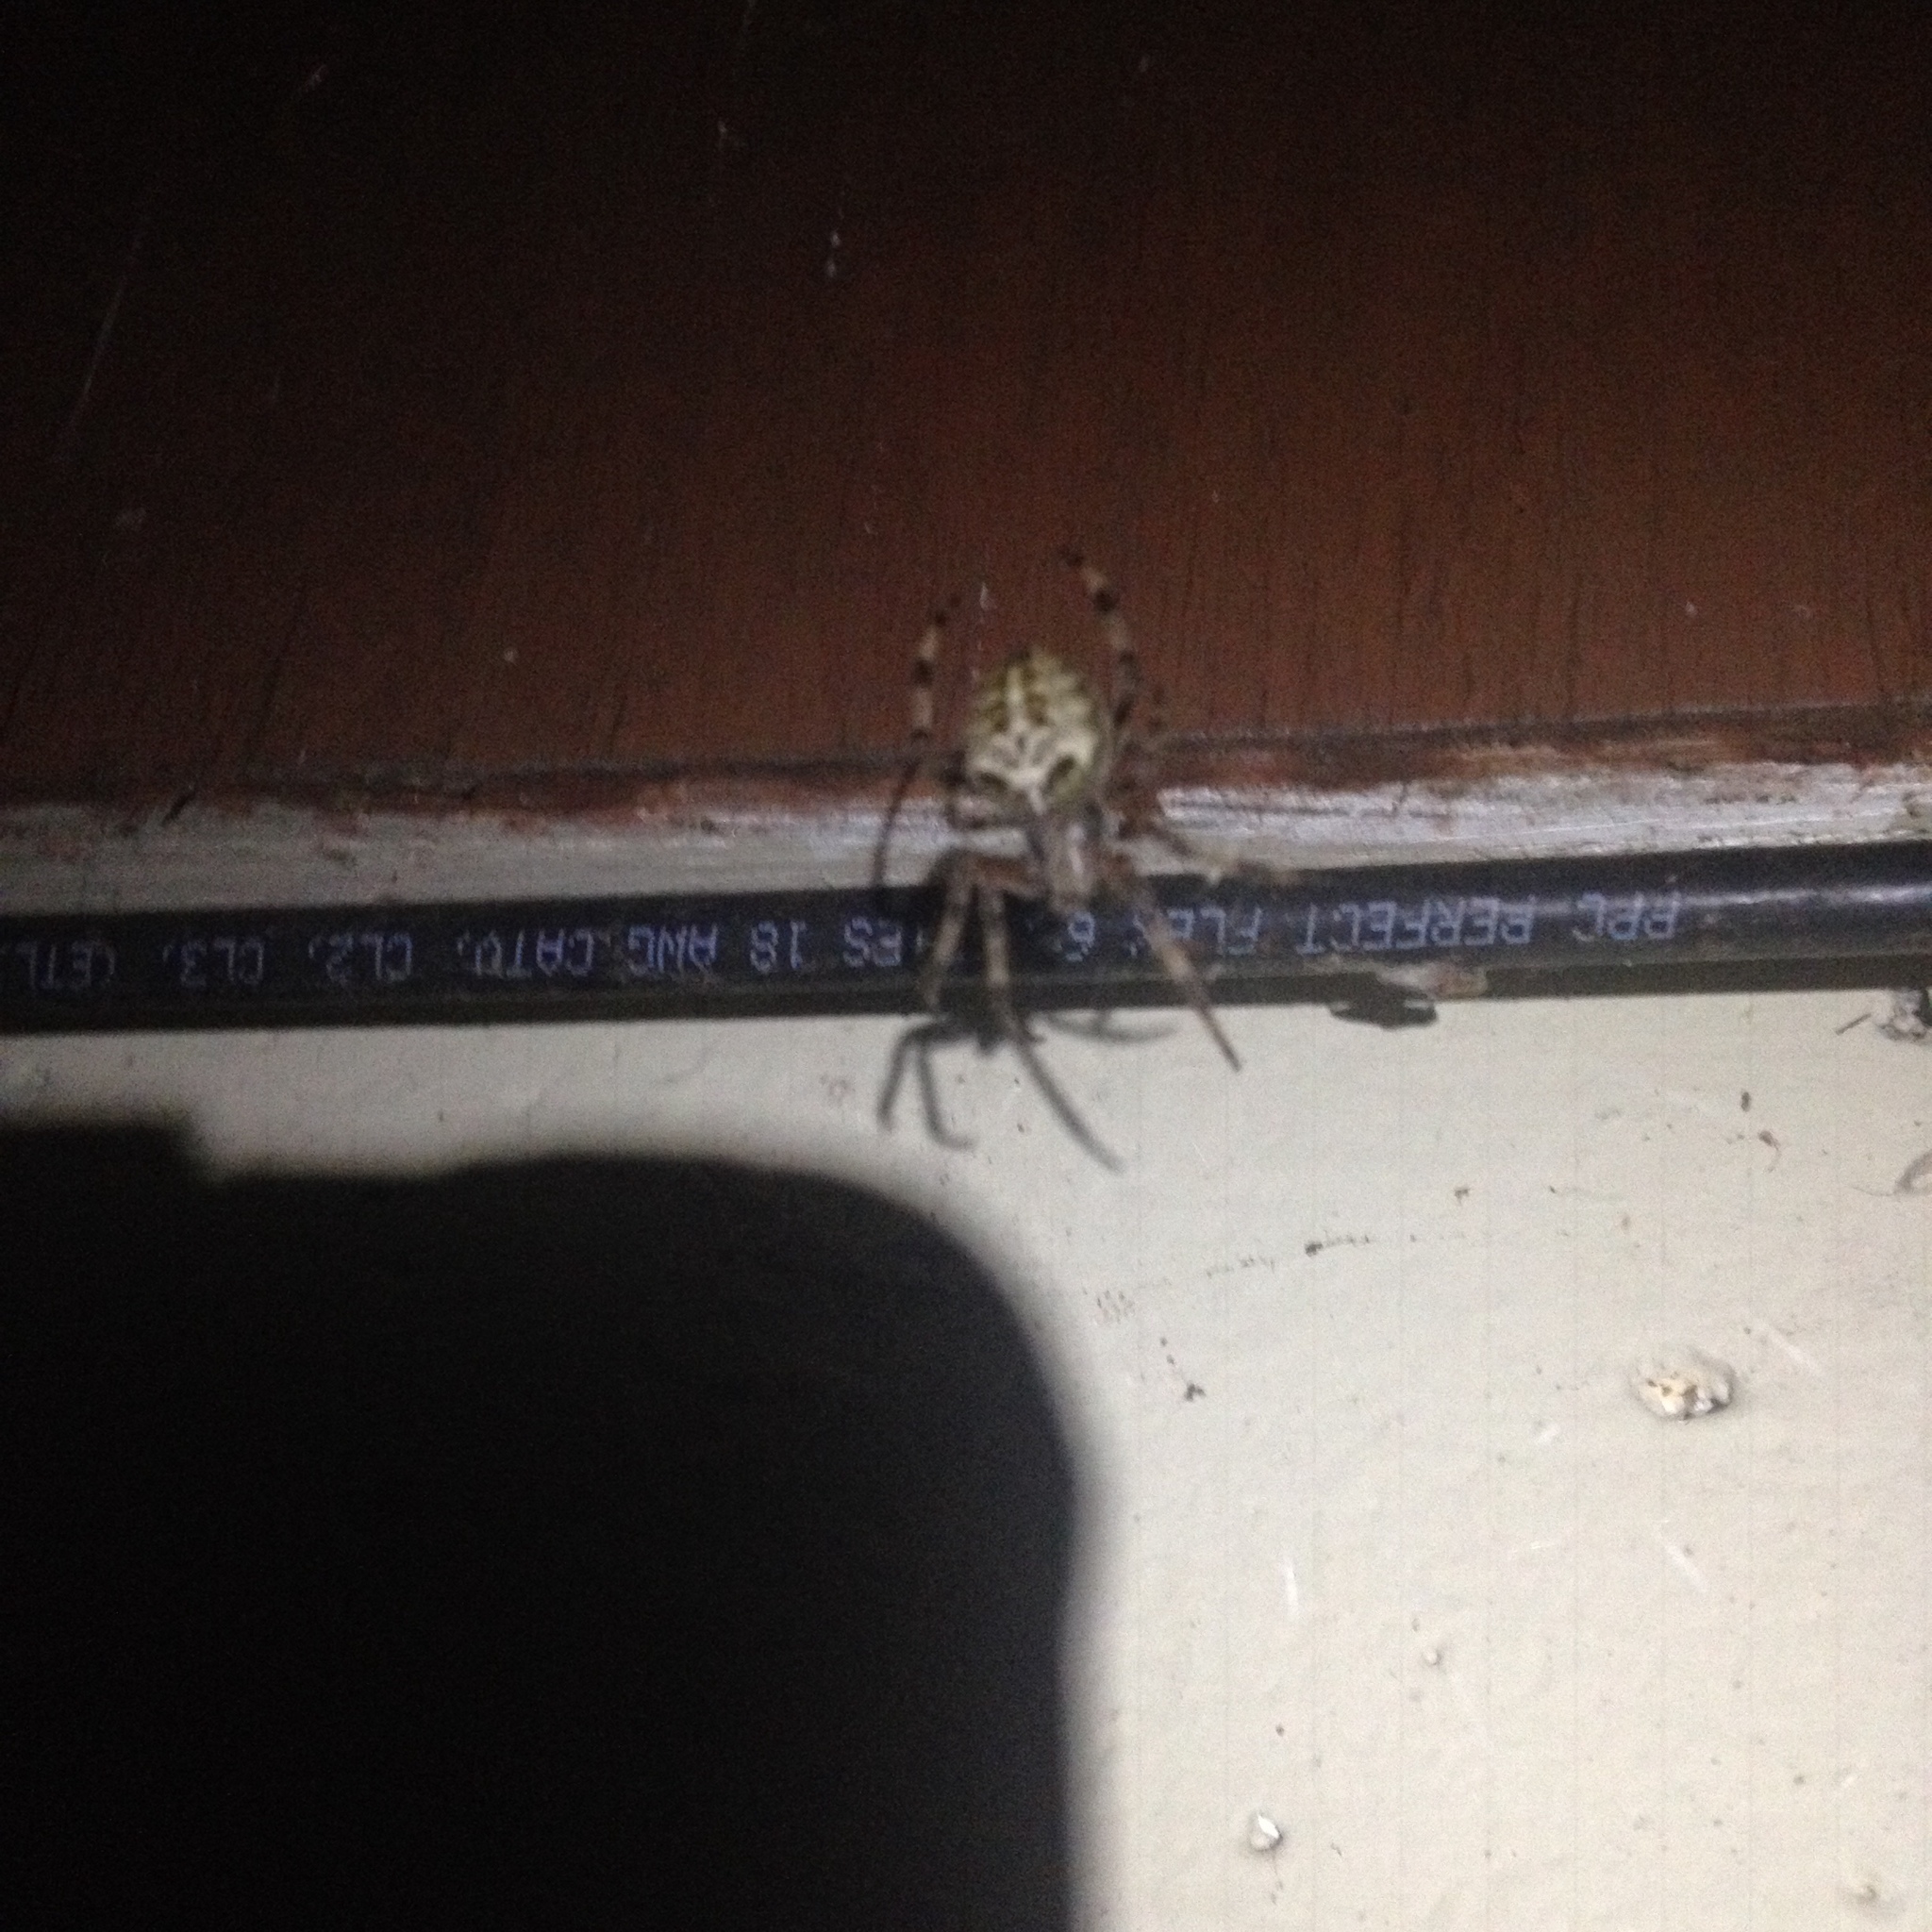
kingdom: Animalia
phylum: Arthropoda
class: Arachnida
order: Araneae
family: Araneidae
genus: Araneus
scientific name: Araneus nordmanni
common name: Nordmann's orbweaver
